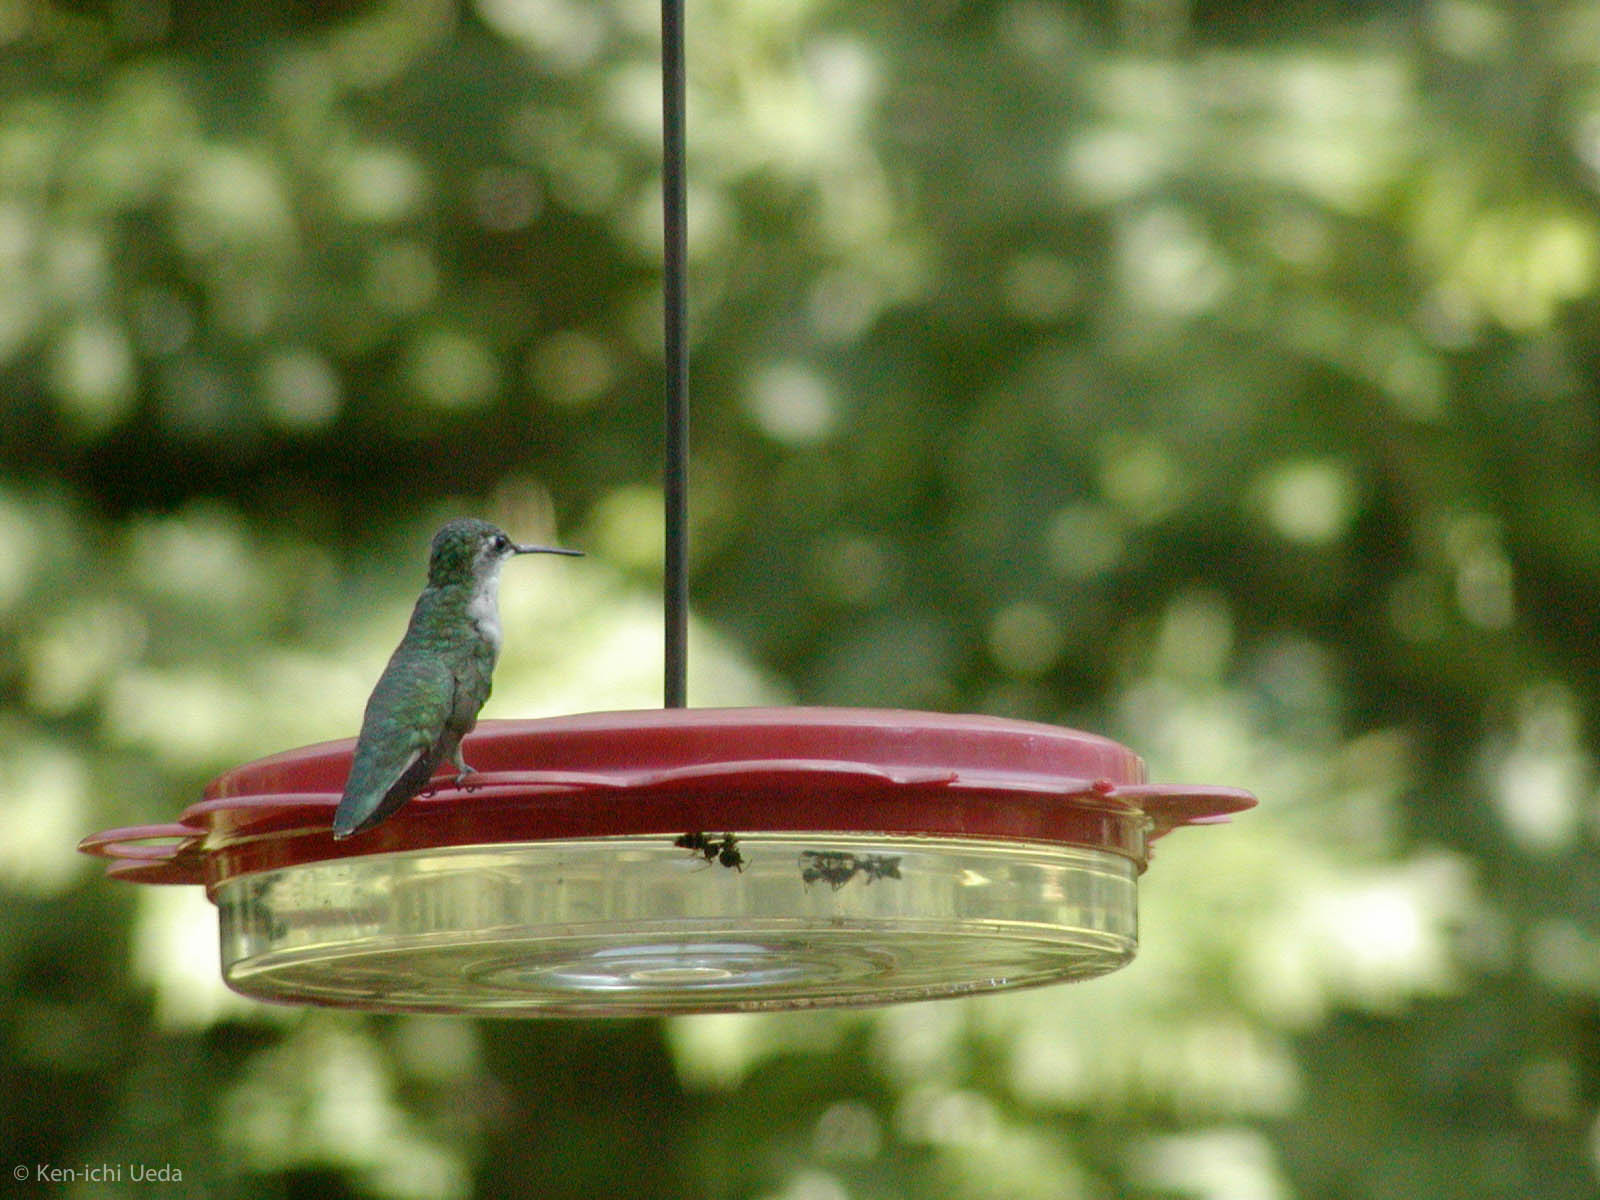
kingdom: Animalia
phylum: Chordata
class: Aves
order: Apodiformes
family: Trochilidae
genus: Archilochus
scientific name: Archilochus colubris
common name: Ruby-throated hummingbird
